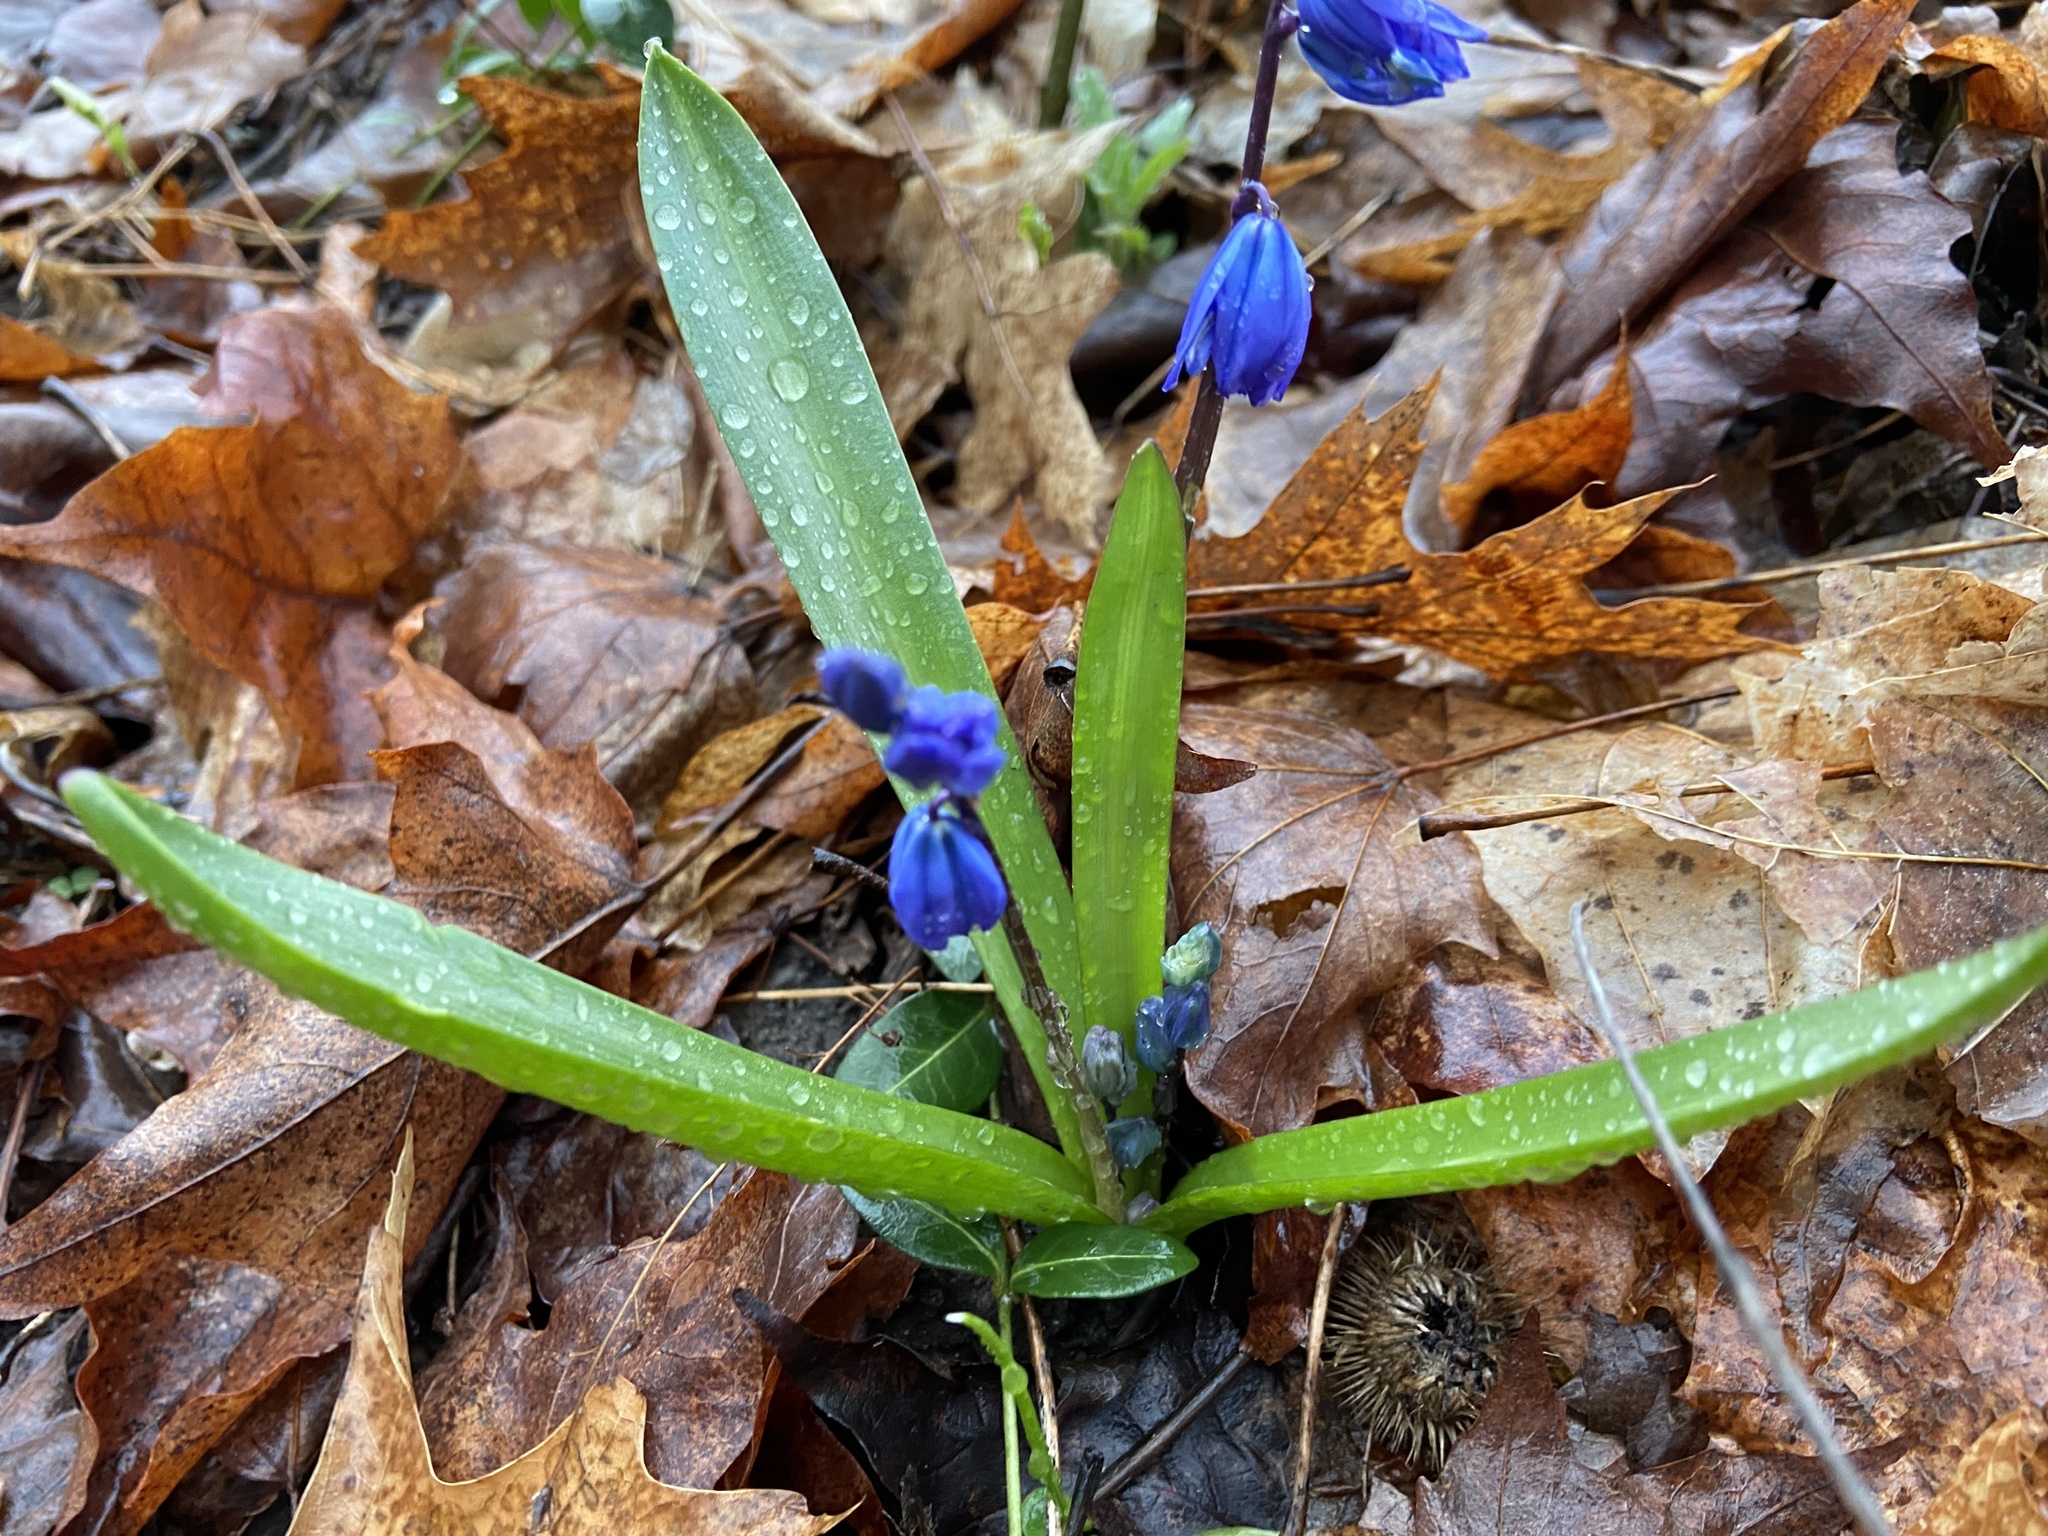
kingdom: Plantae
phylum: Tracheophyta
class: Liliopsida
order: Asparagales
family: Asparagaceae
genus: Scilla
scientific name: Scilla siberica
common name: Siberian squill
